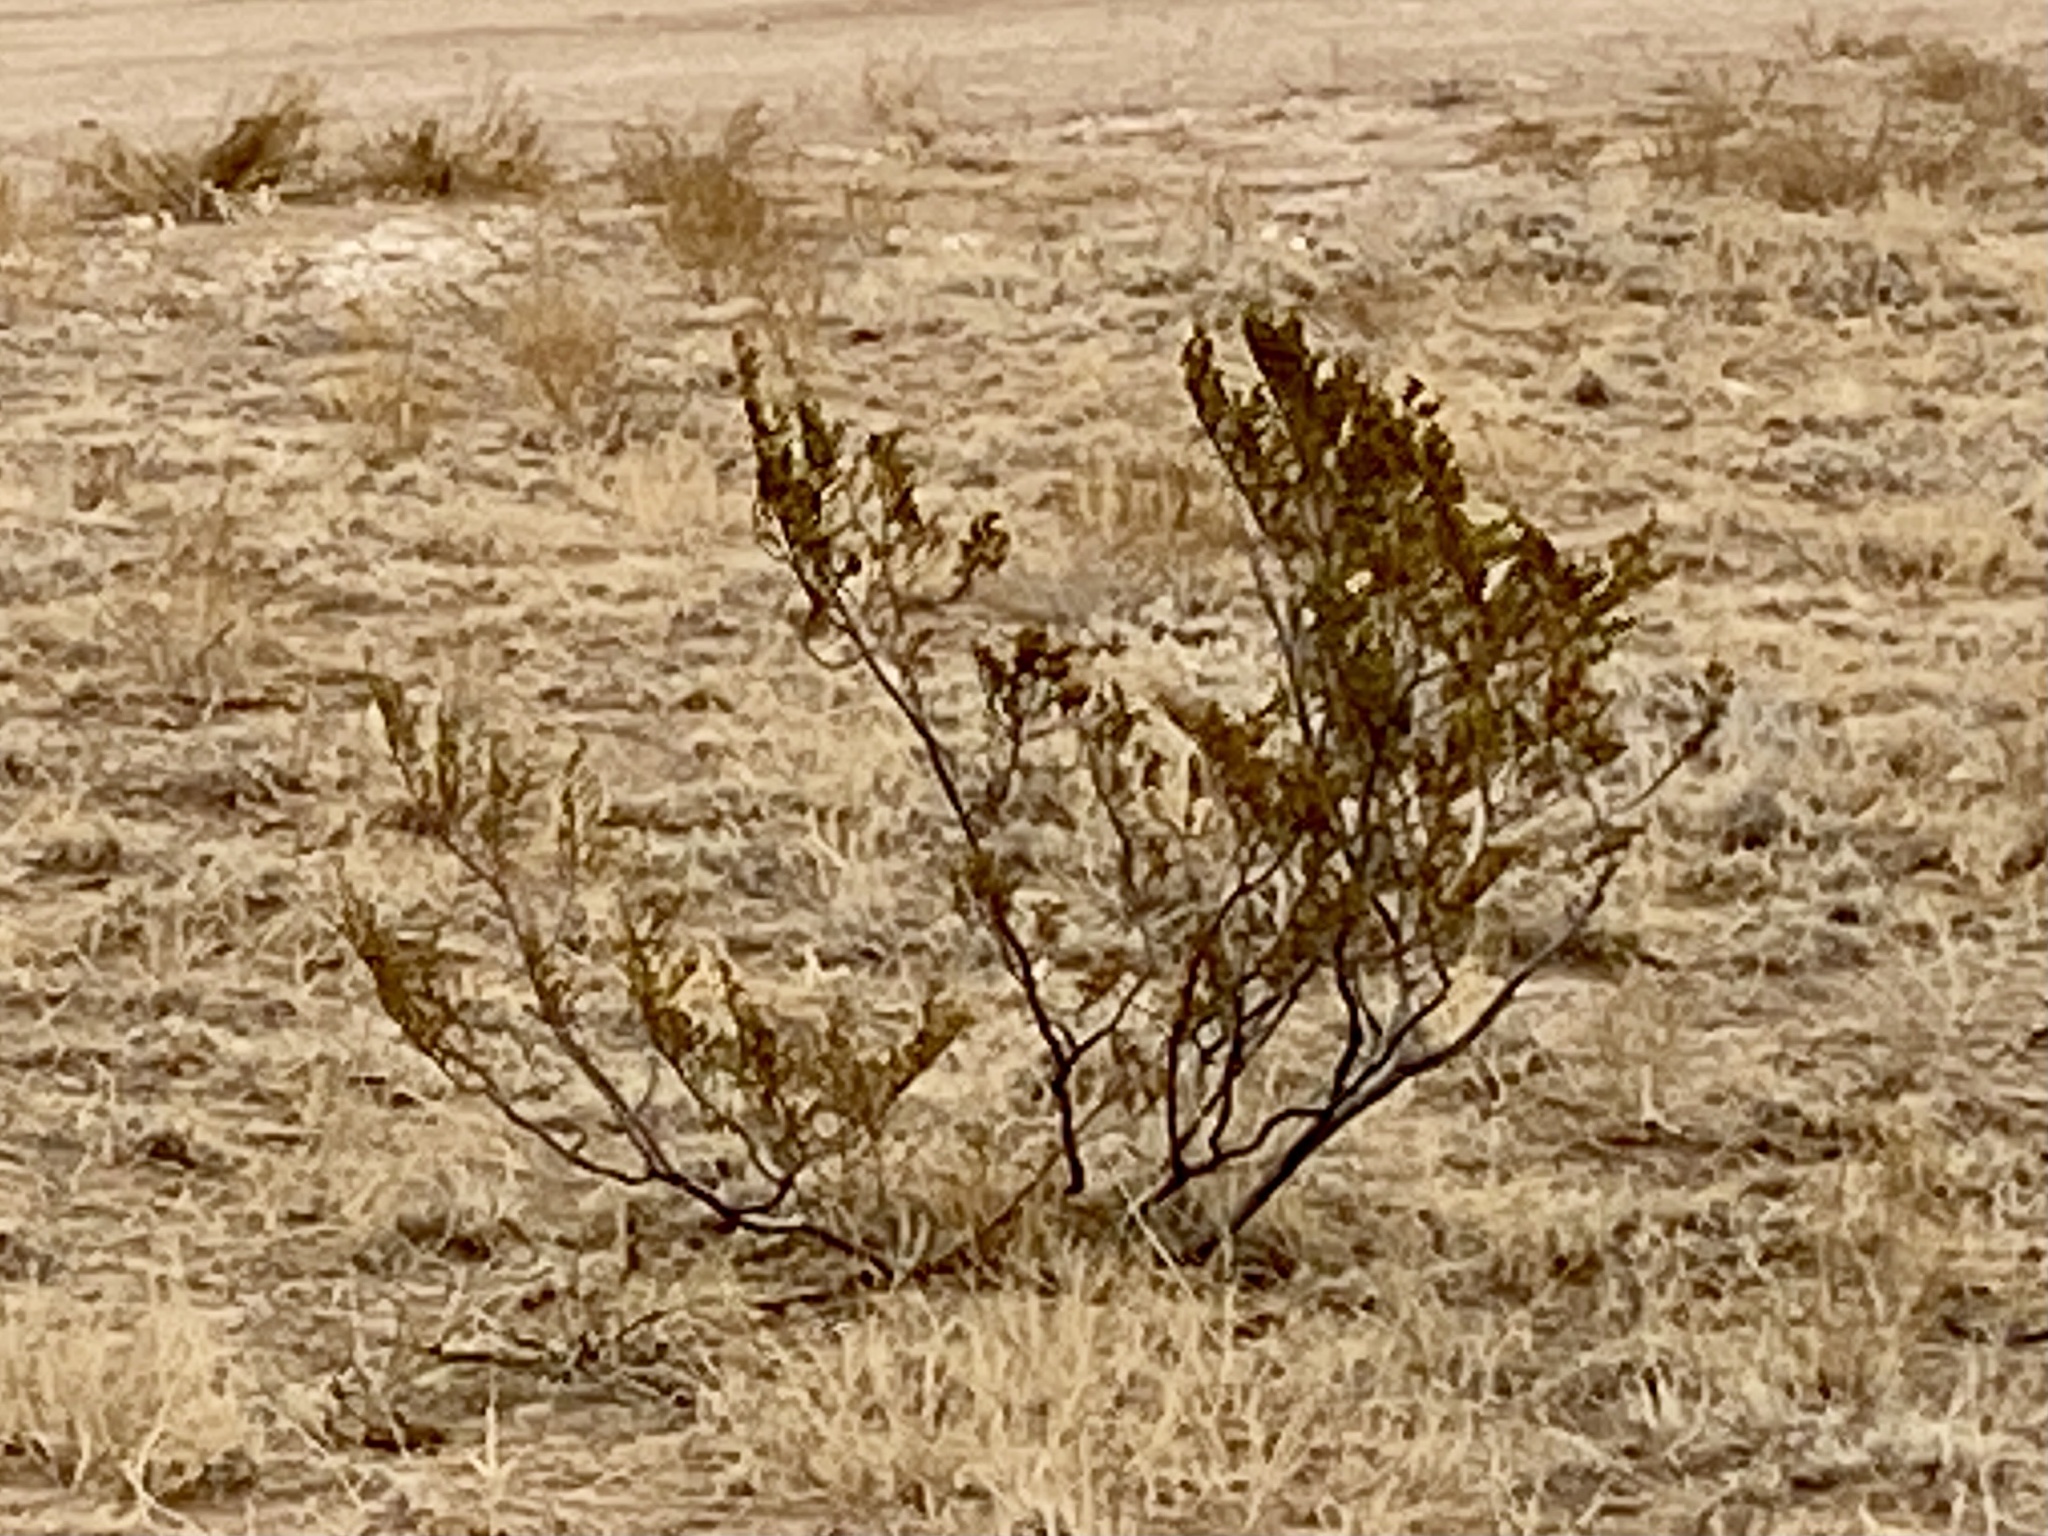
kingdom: Plantae
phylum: Tracheophyta
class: Magnoliopsida
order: Zygophyllales
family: Zygophyllaceae
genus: Larrea
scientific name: Larrea tridentata
